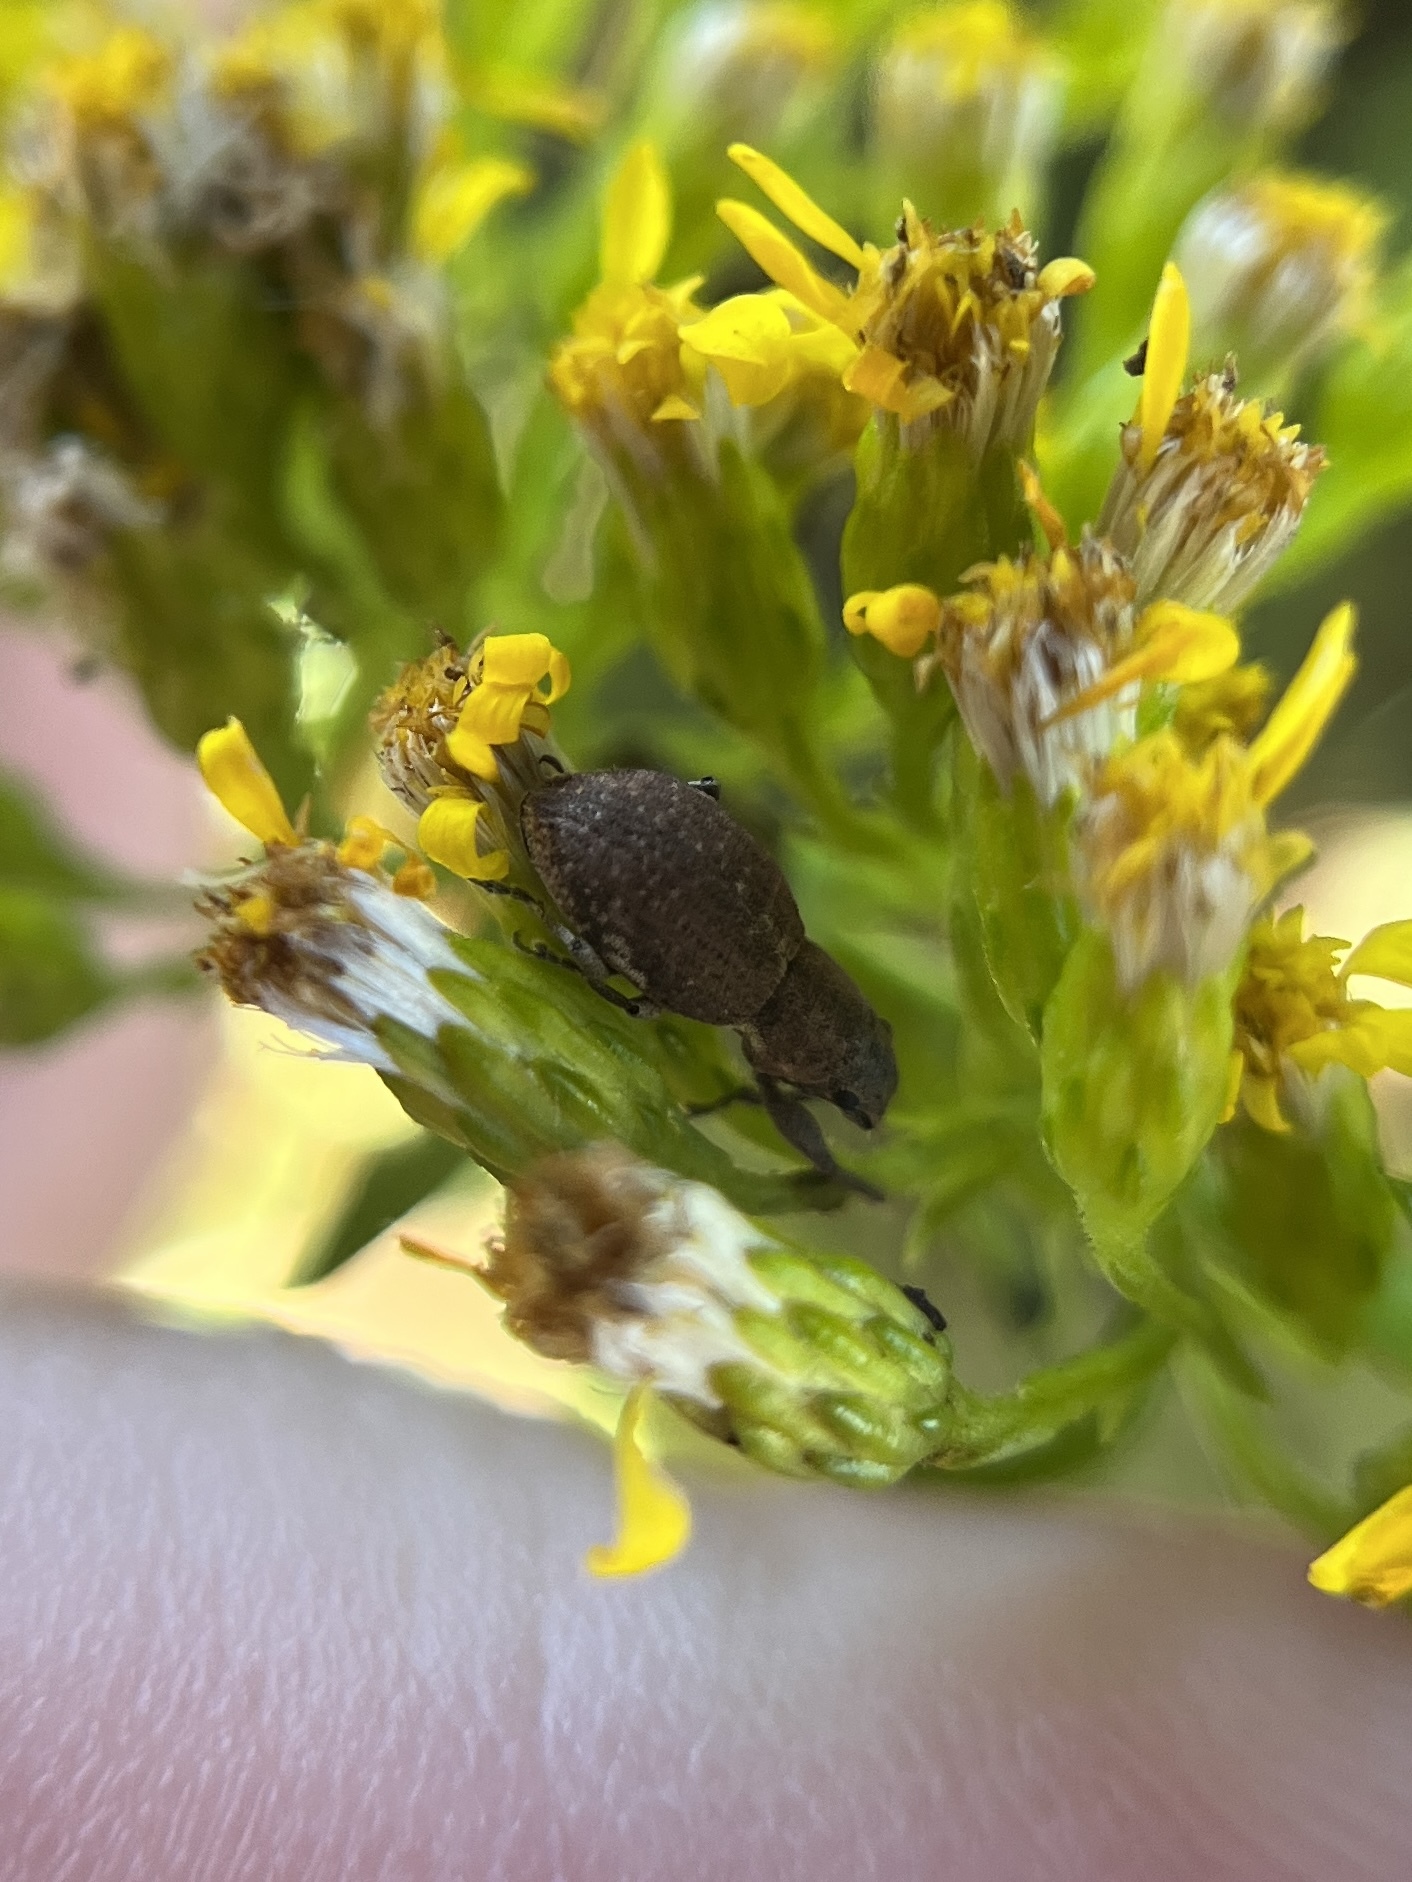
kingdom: Animalia
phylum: Arthropoda
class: Insecta
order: Coleoptera
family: Curculionidae
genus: Naupactus
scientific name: Naupactus cervinus
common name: Fuller rose beetle
